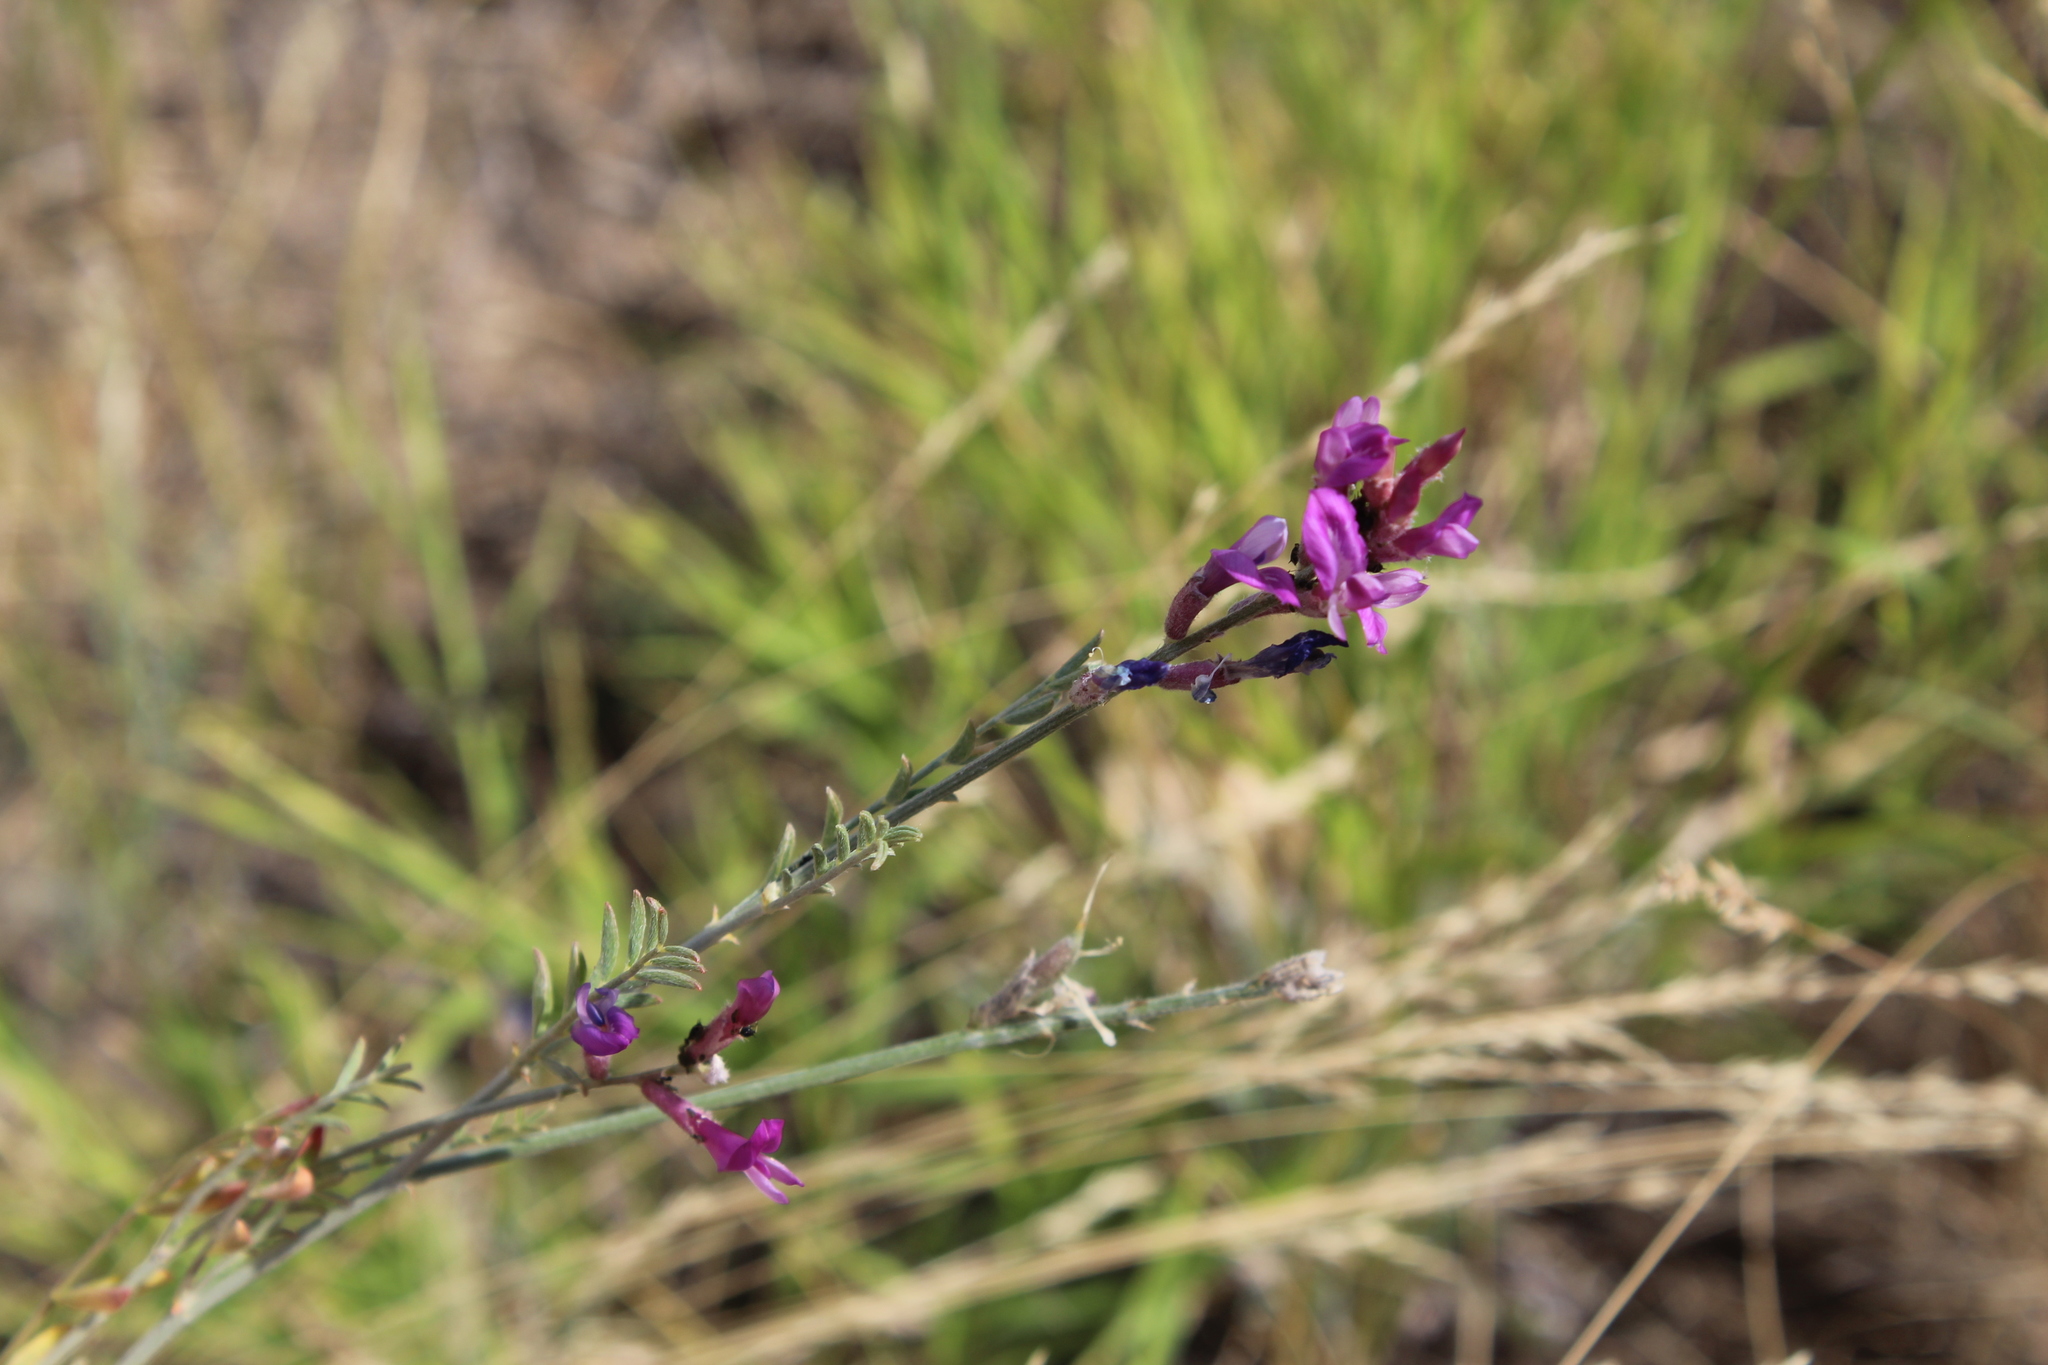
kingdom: Plantae
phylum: Tracheophyta
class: Magnoliopsida
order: Fabales
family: Fabaceae
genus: Astragalus
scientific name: Astragalus varius
